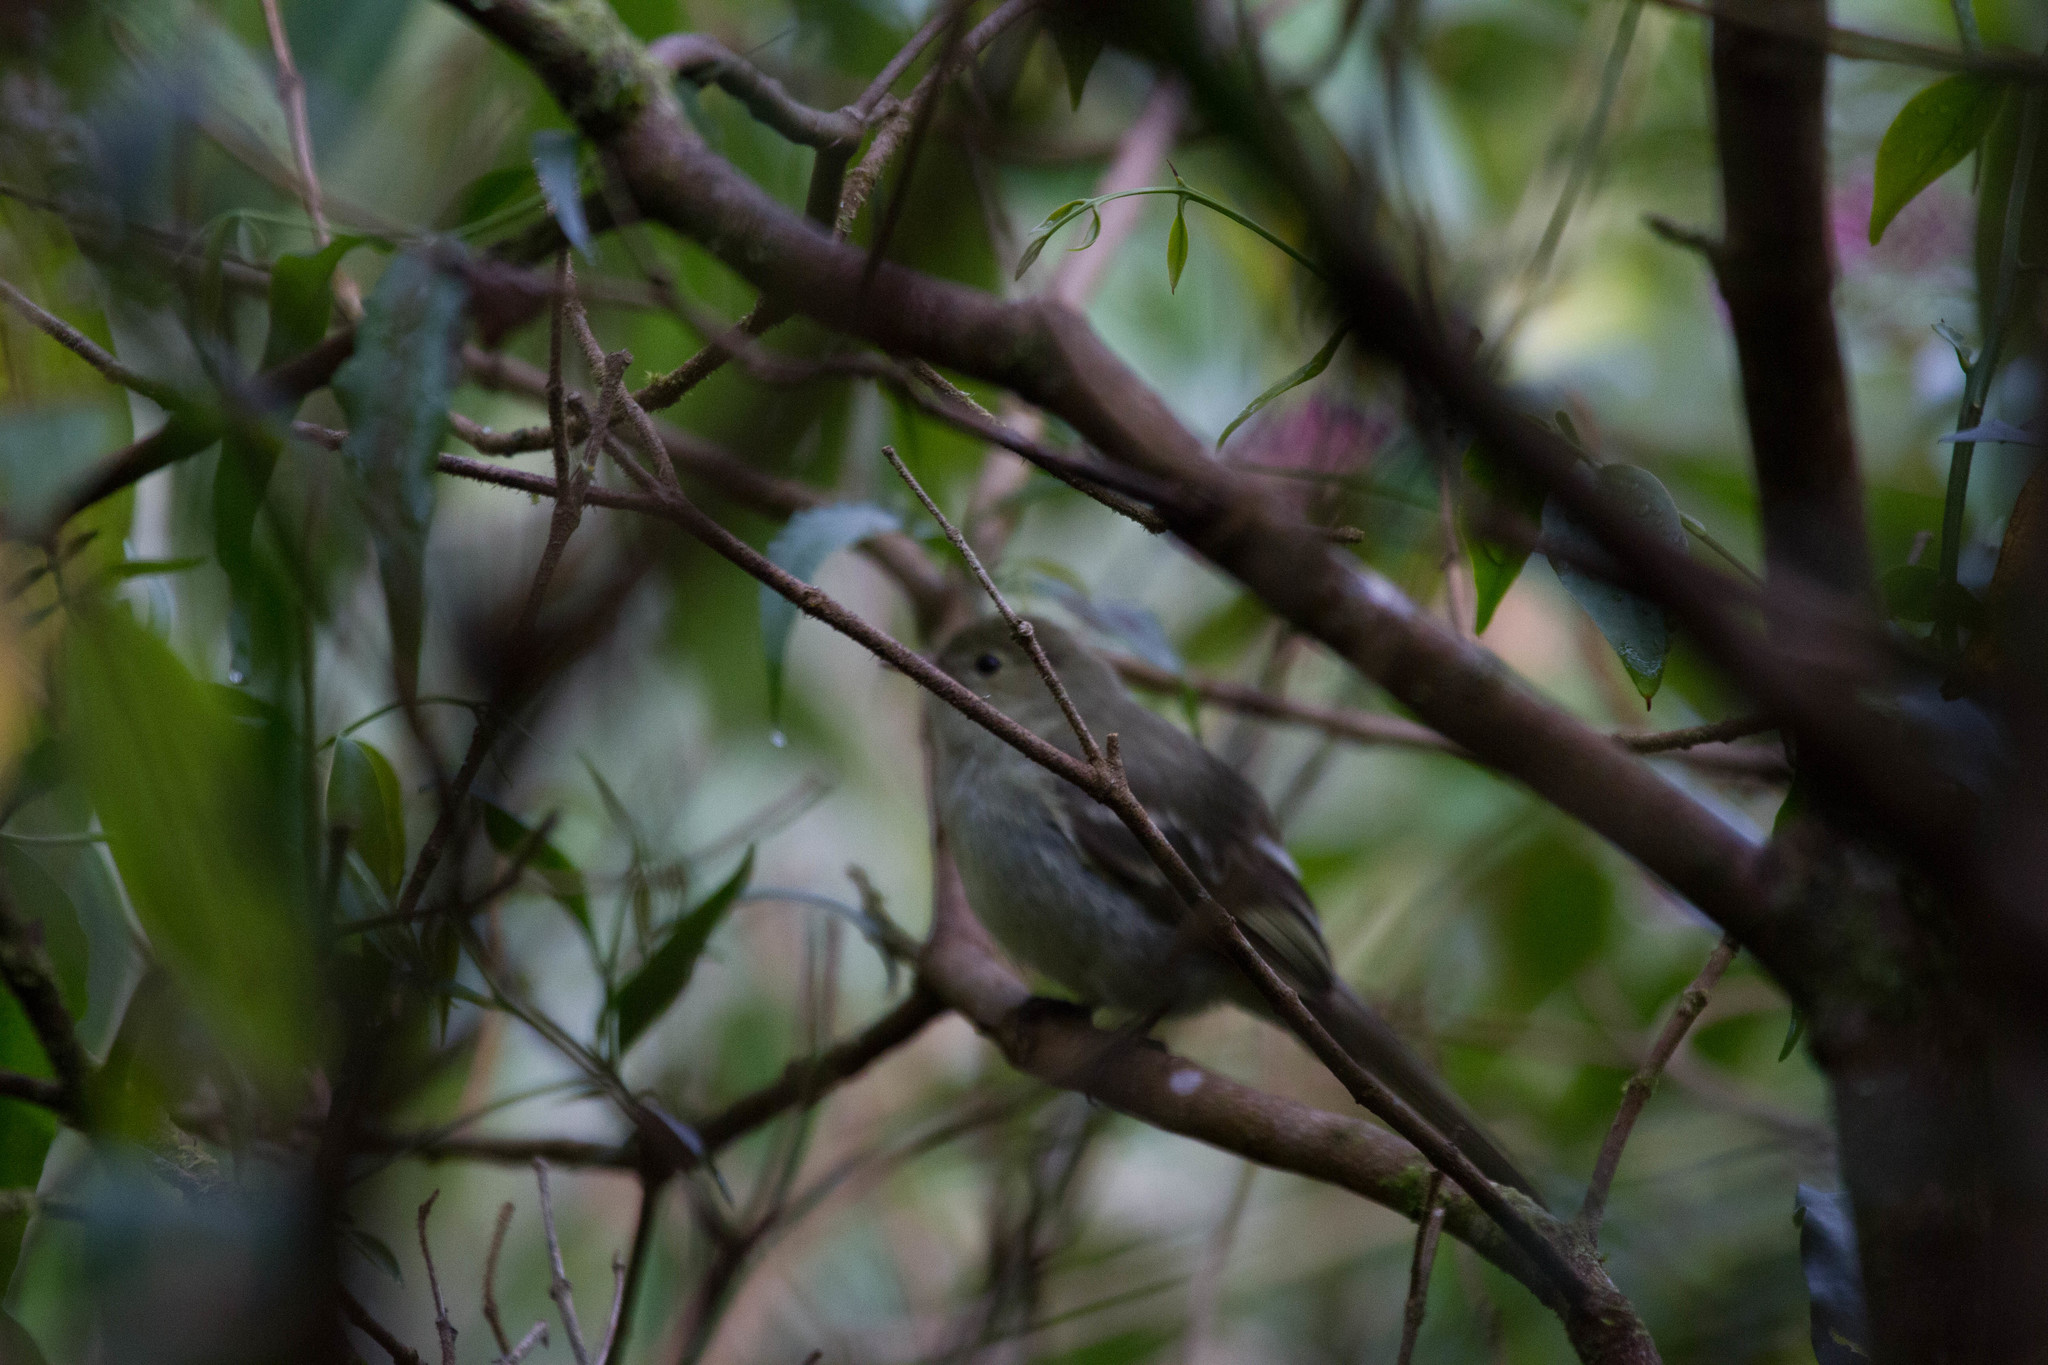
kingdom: Animalia
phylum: Chordata
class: Aves
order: Passeriformes
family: Tyrannidae
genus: Elaenia
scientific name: Elaenia frantzii
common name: Mountain elaenia
